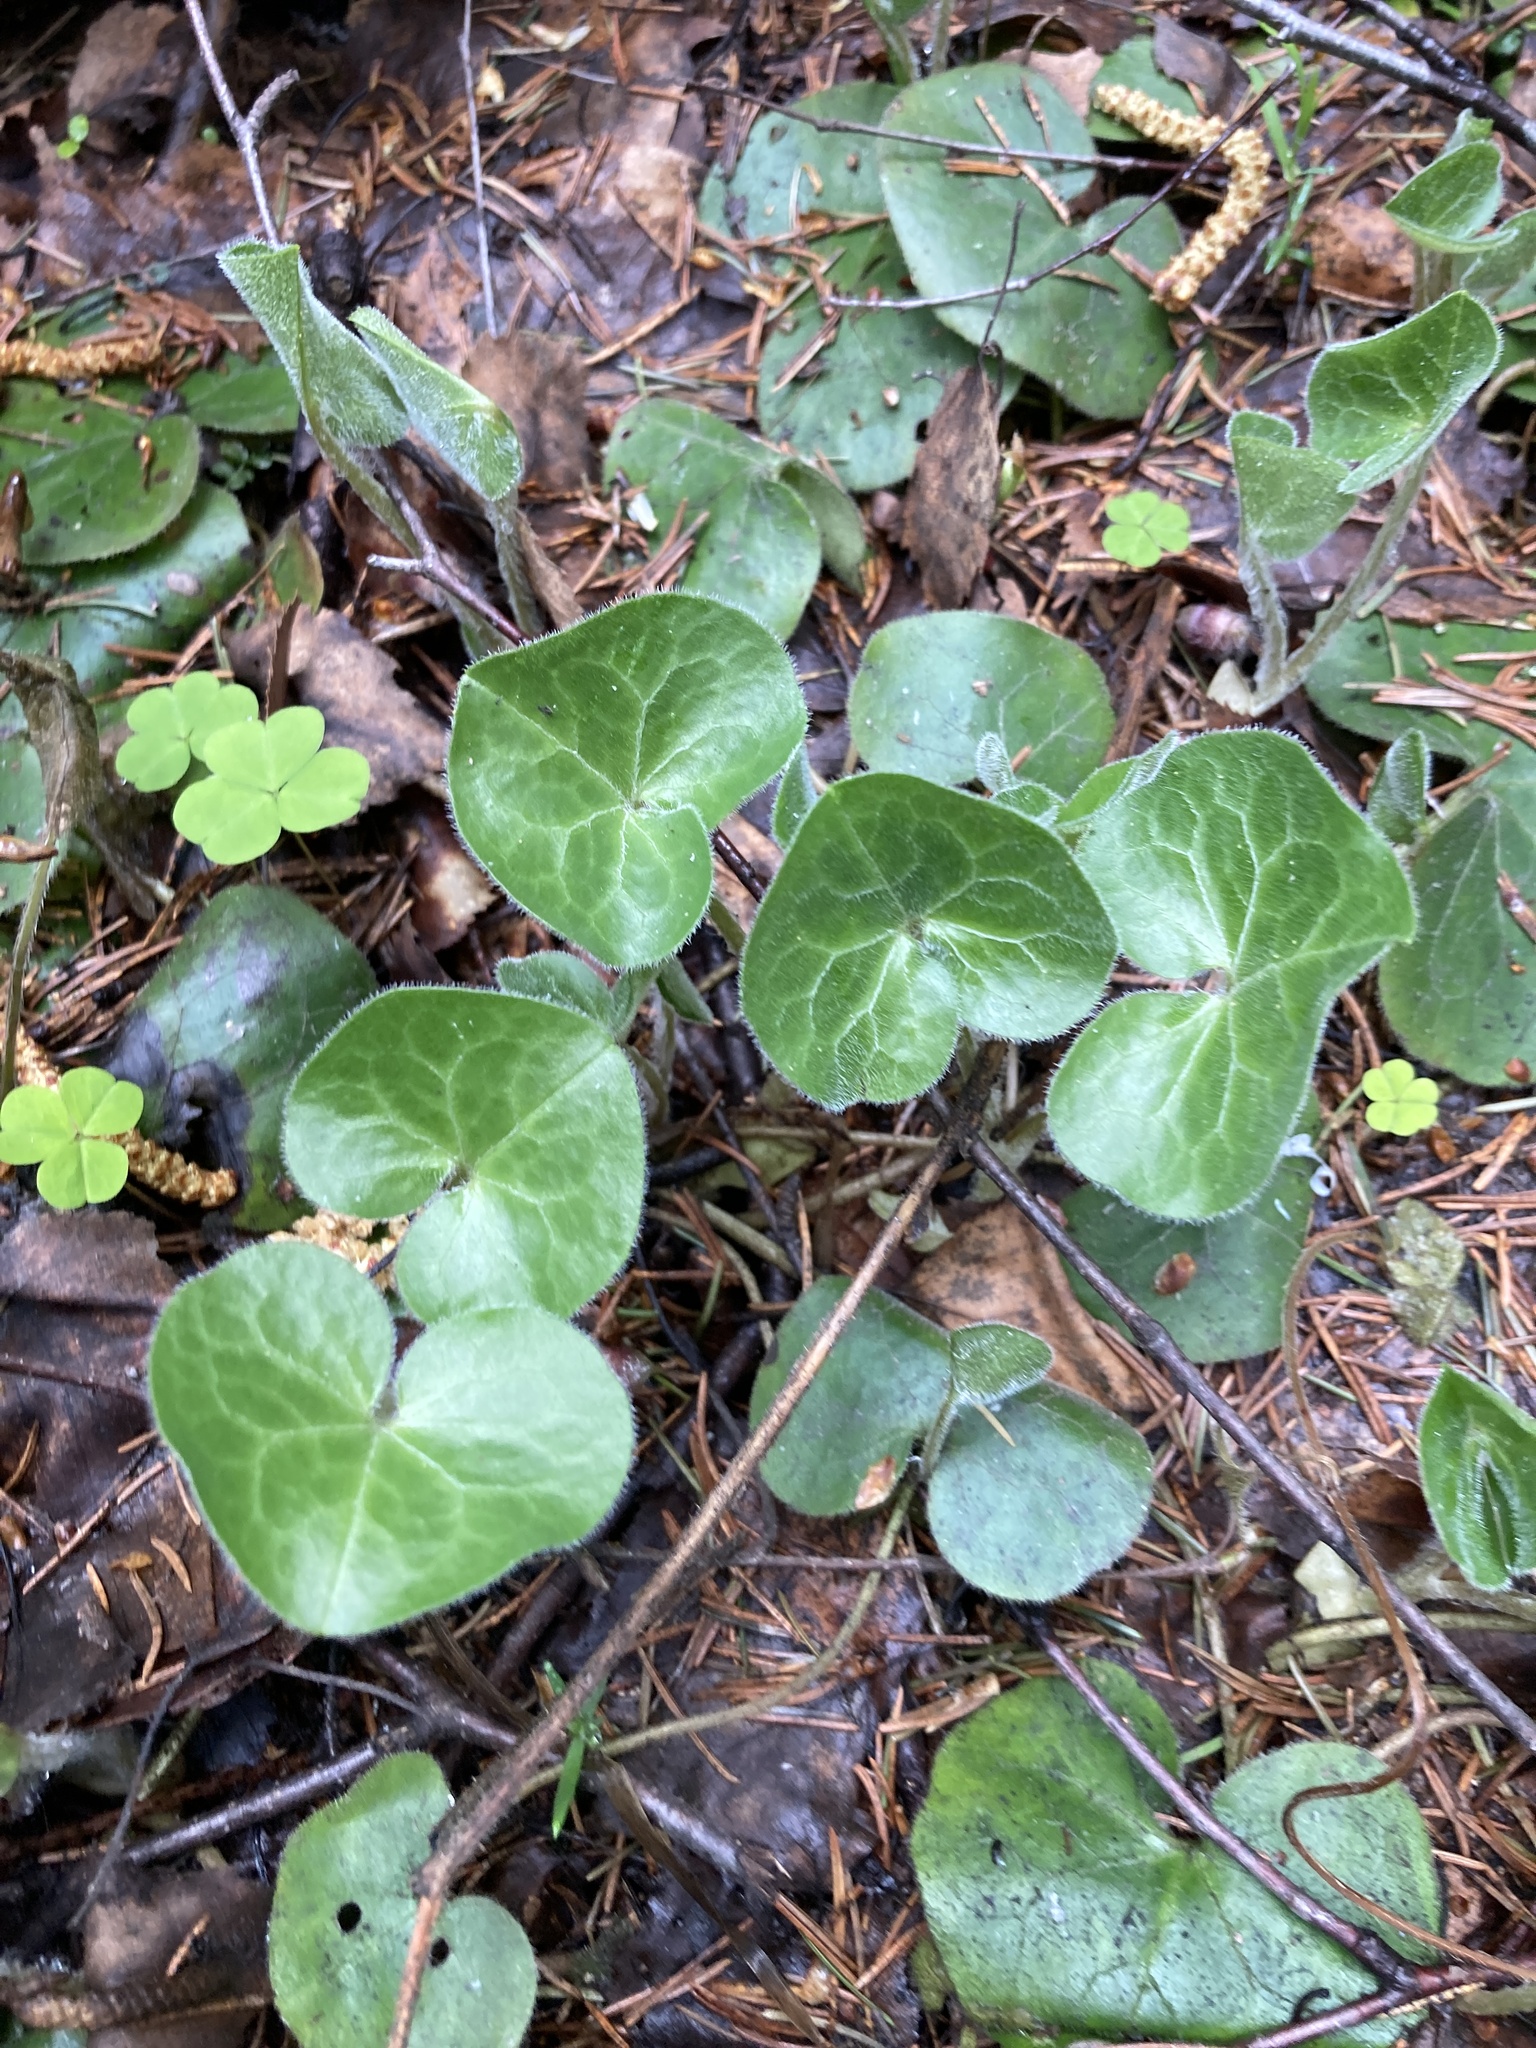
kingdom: Plantae
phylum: Tracheophyta
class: Magnoliopsida
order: Piperales
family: Aristolochiaceae
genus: Asarum
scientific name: Asarum europaeum
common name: Asarabacca
